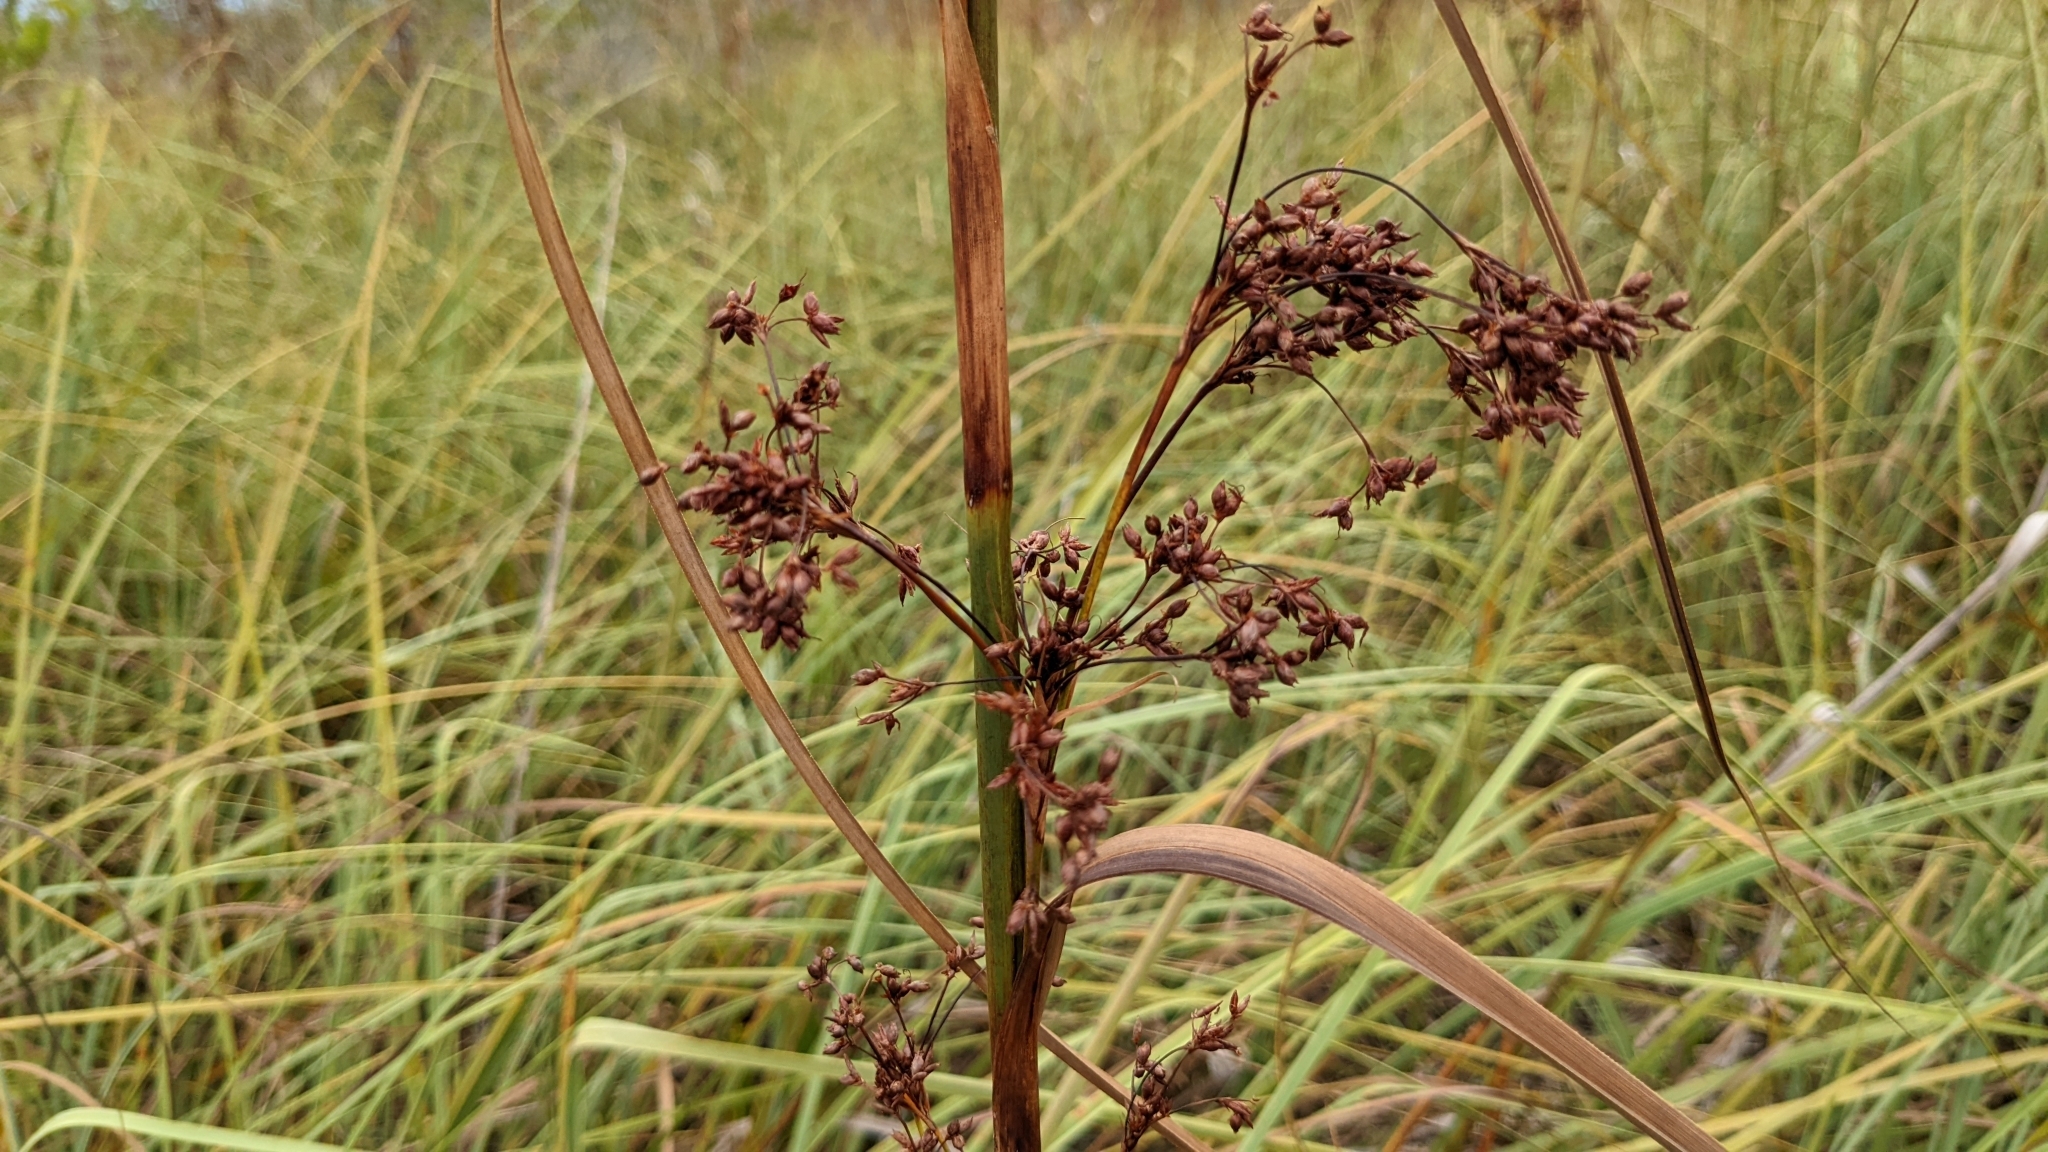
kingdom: Plantae
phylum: Tracheophyta
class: Liliopsida
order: Poales
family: Cyperaceae
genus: Cladium
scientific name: Cladium mariscus
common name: Great fen-sedge
